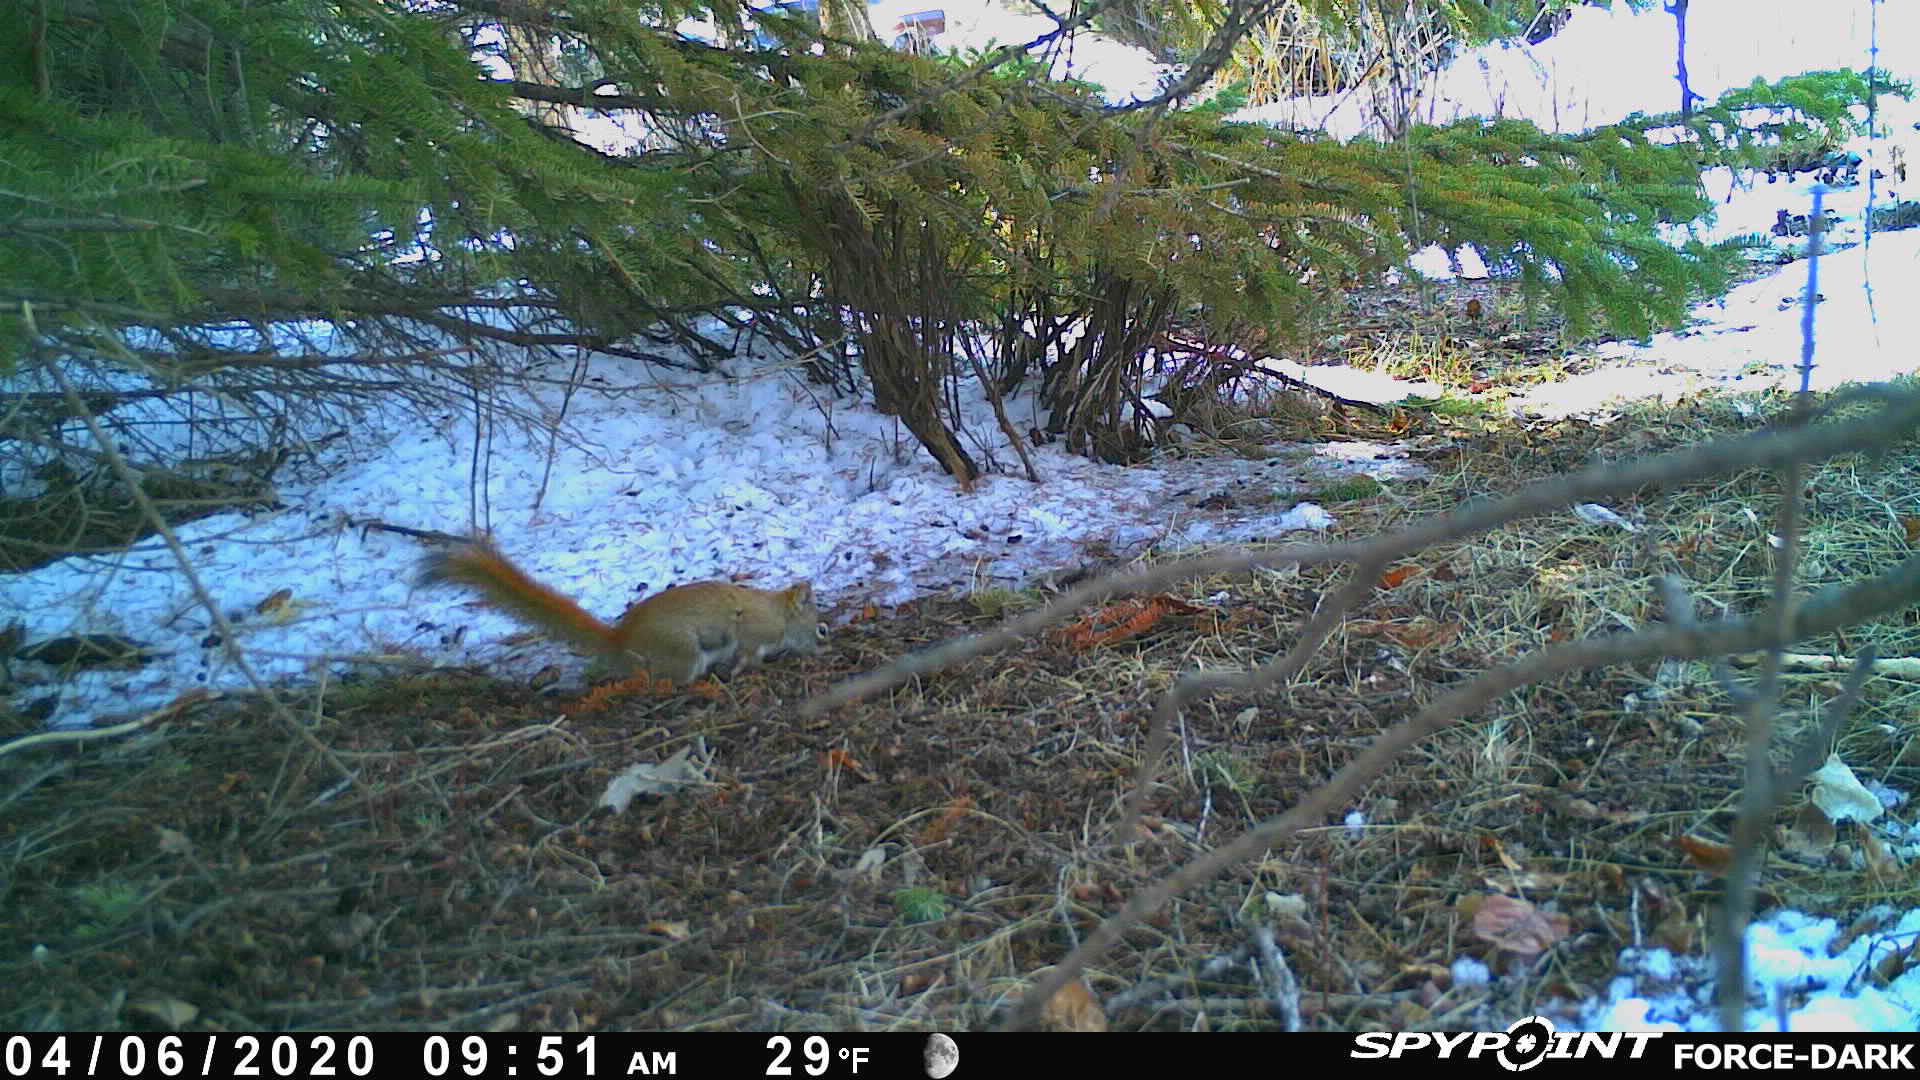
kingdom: Animalia
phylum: Chordata
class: Mammalia
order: Rodentia
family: Sciuridae
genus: Tamiasciurus
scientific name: Tamiasciurus hudsonicus
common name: Red squirrel
